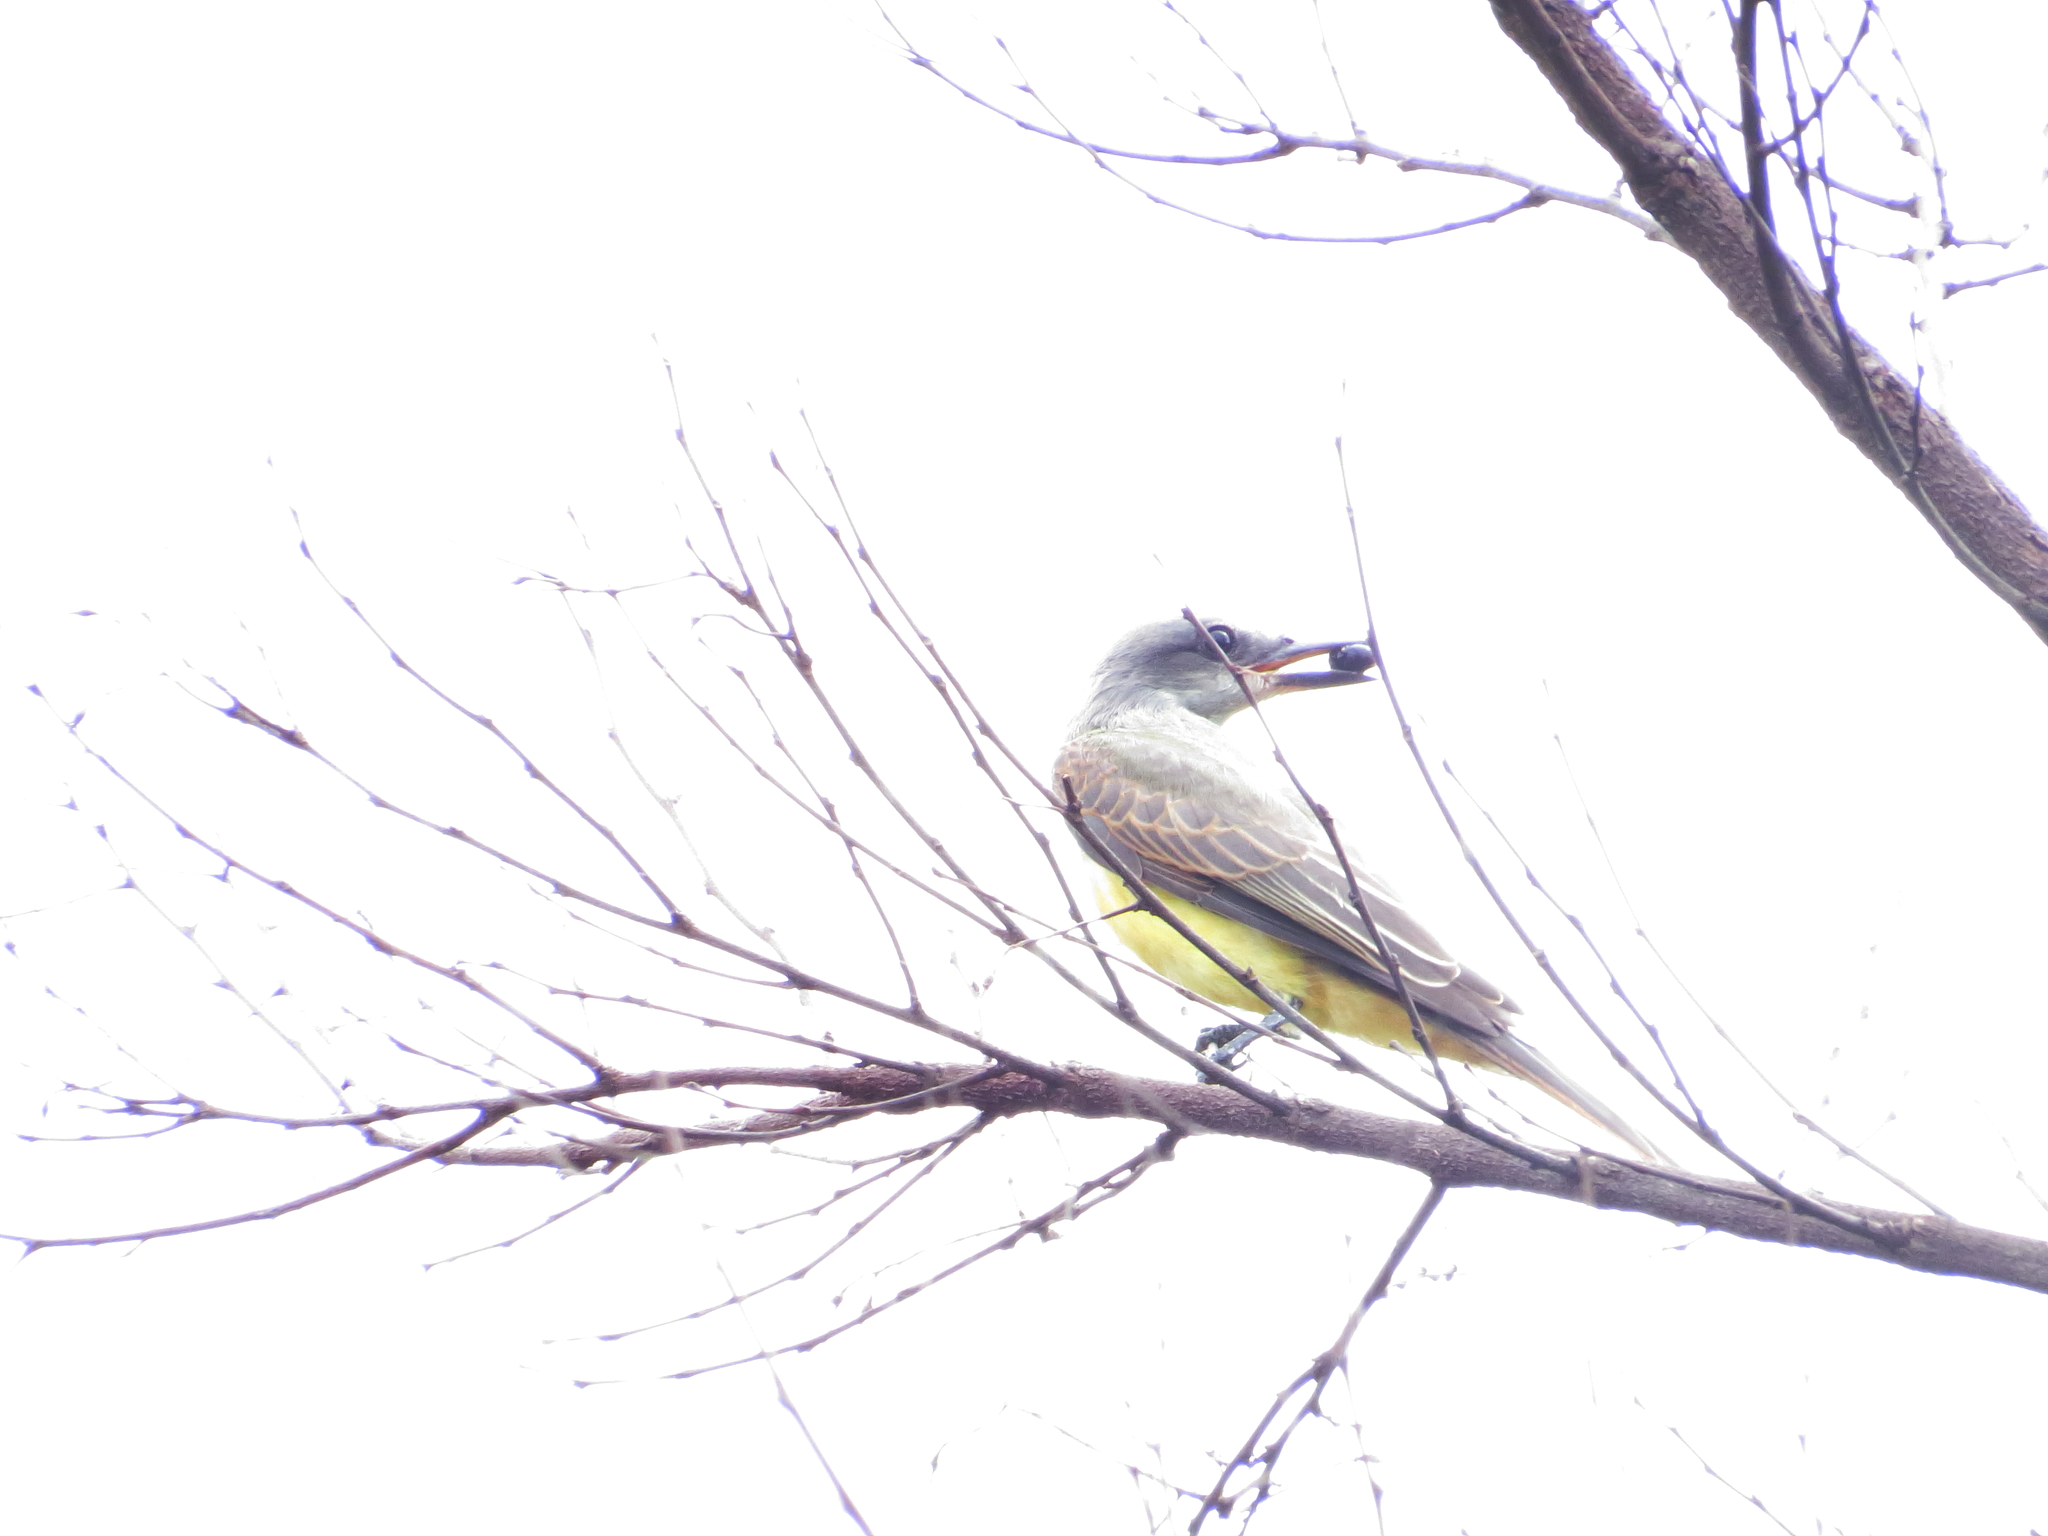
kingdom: Animalia
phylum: Chordata
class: Aves
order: Passeriformes
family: Tyrannidae
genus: Tyrannus
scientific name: Tyrannus melancholicus
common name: Tropical kingbird
